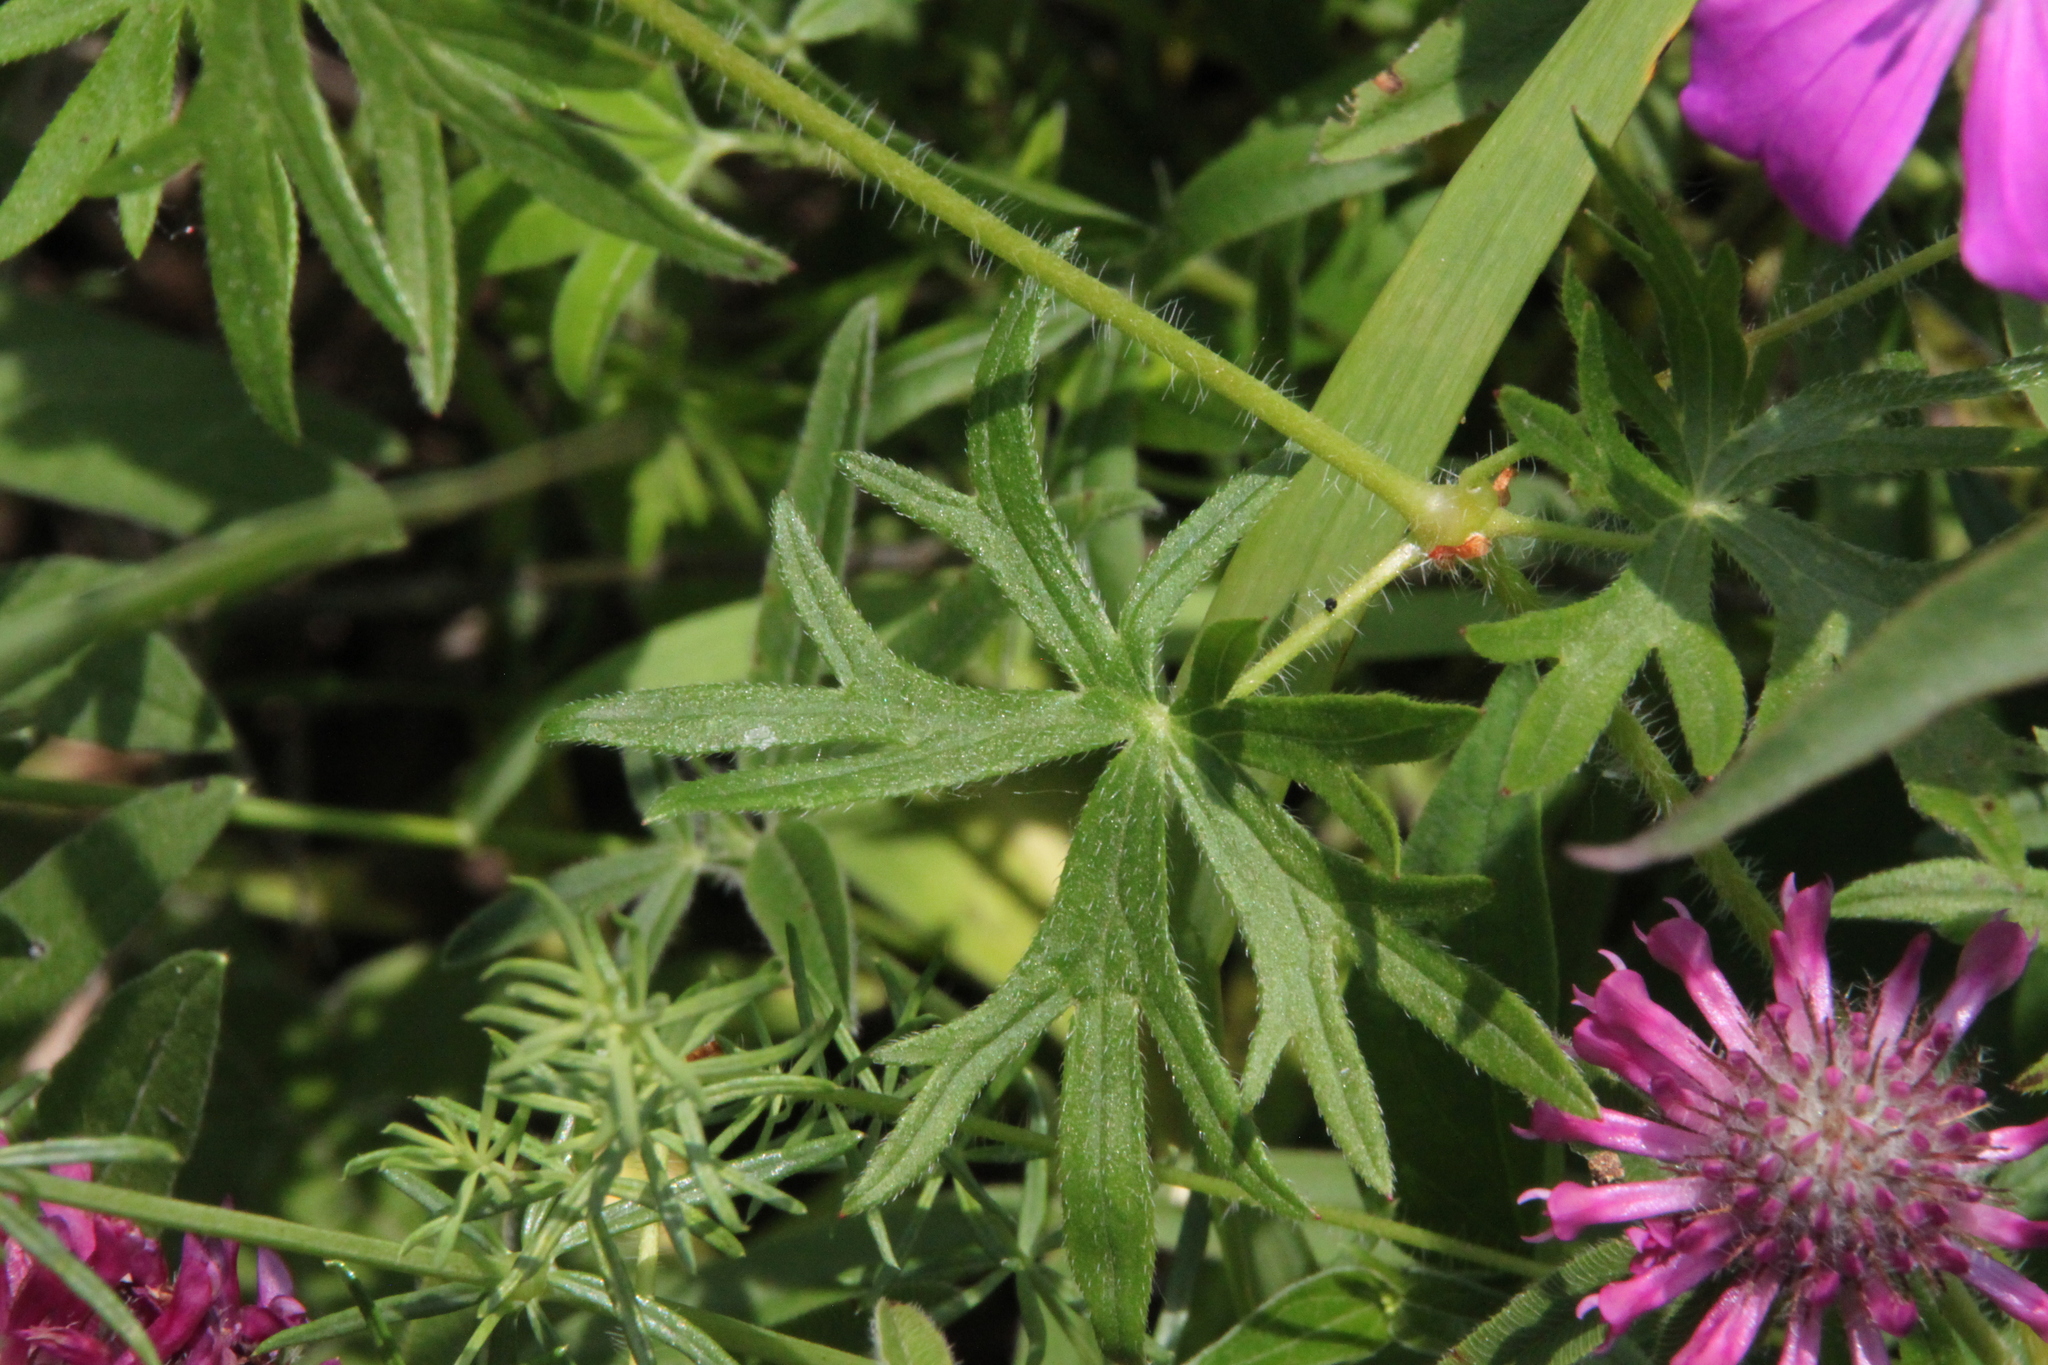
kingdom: Plantae
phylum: Tracheophyta
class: Magnoliopsida
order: Geraniales
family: Geraniaceae
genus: Geranium
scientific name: Geranium palustre
